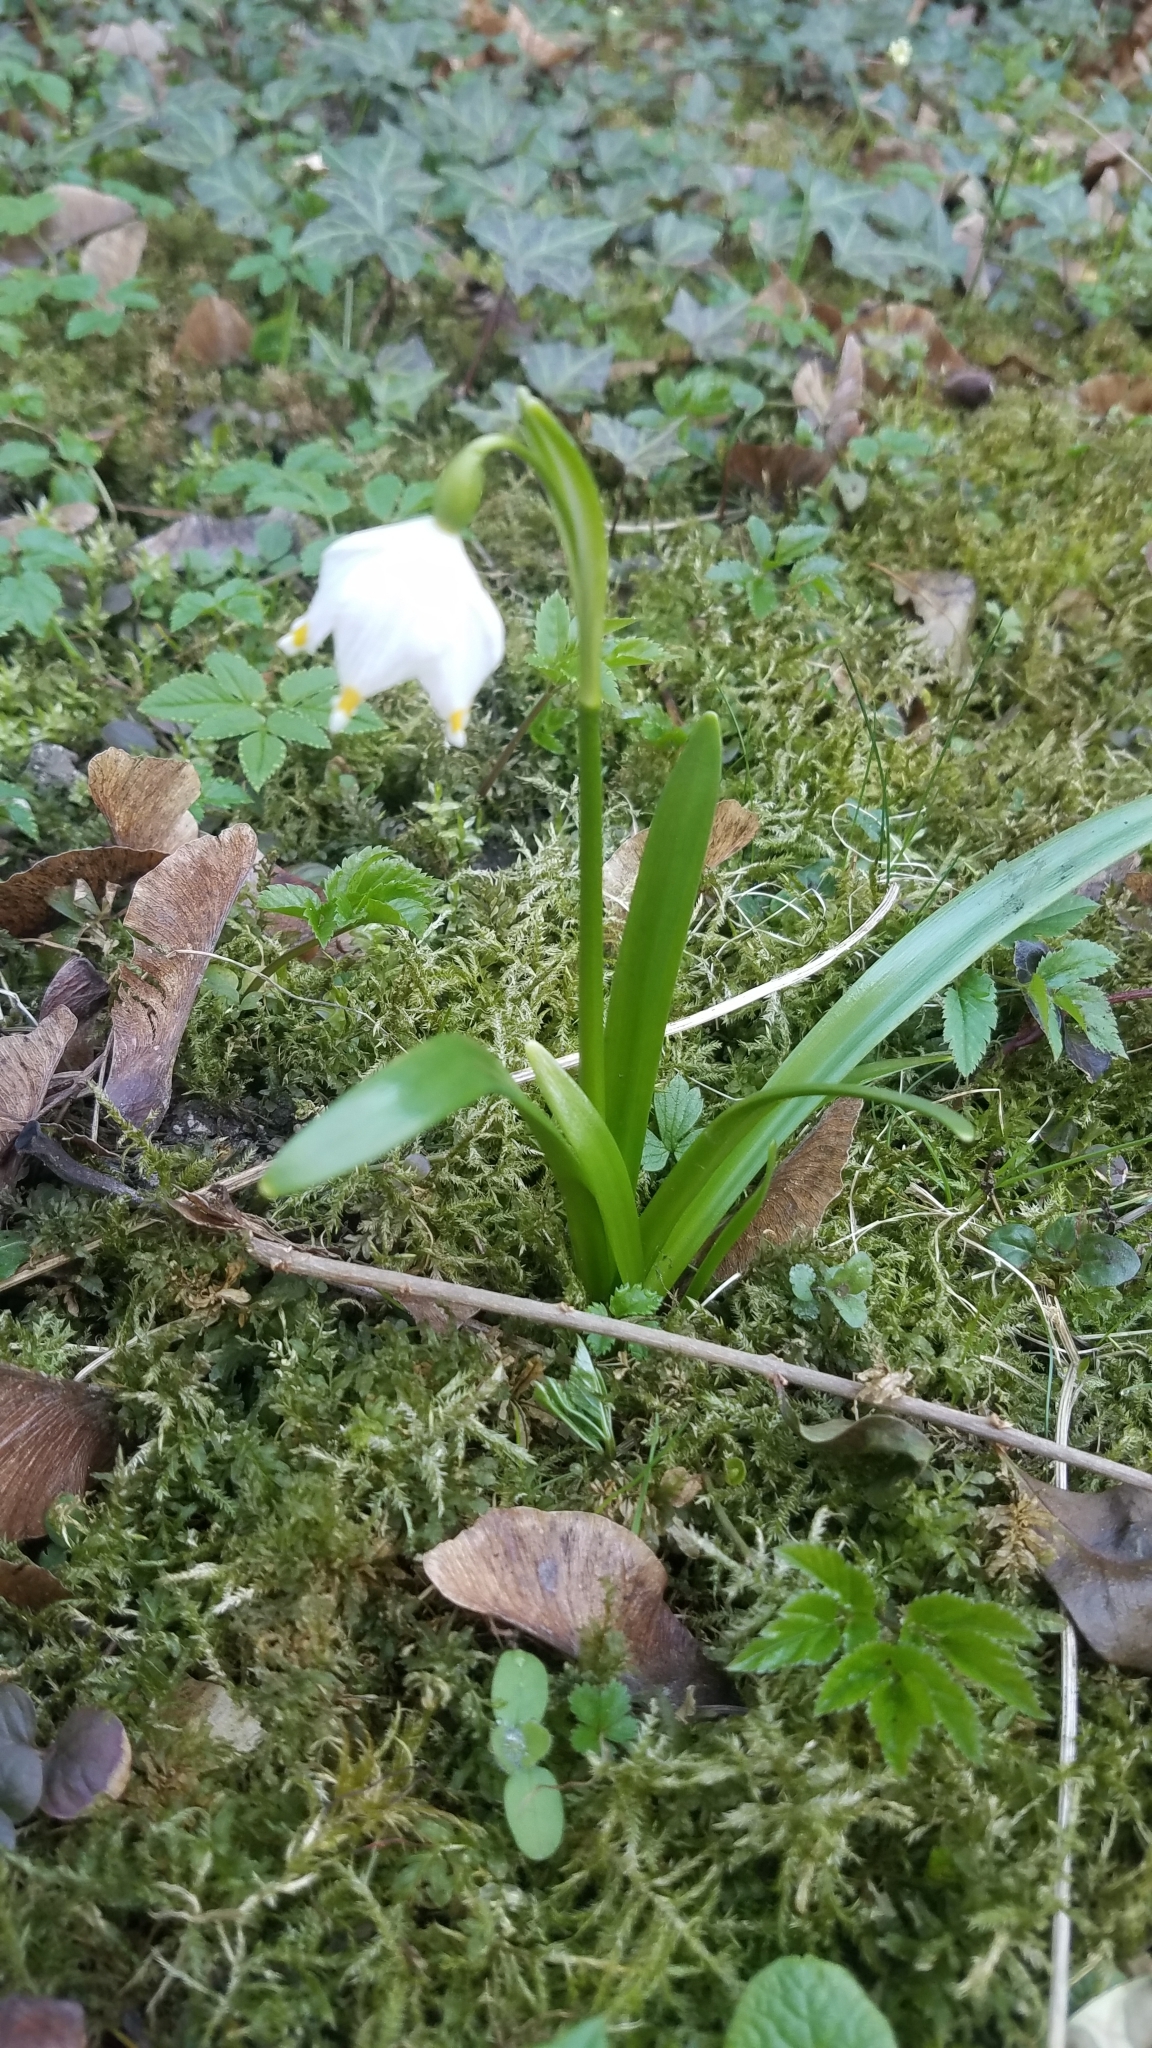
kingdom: Plantae
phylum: Tracheophyta
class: Liliopsida
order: Asparagales
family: Amaryllidaceae
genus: Leucojum
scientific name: Leucojum vernum
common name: Spring snowflake
